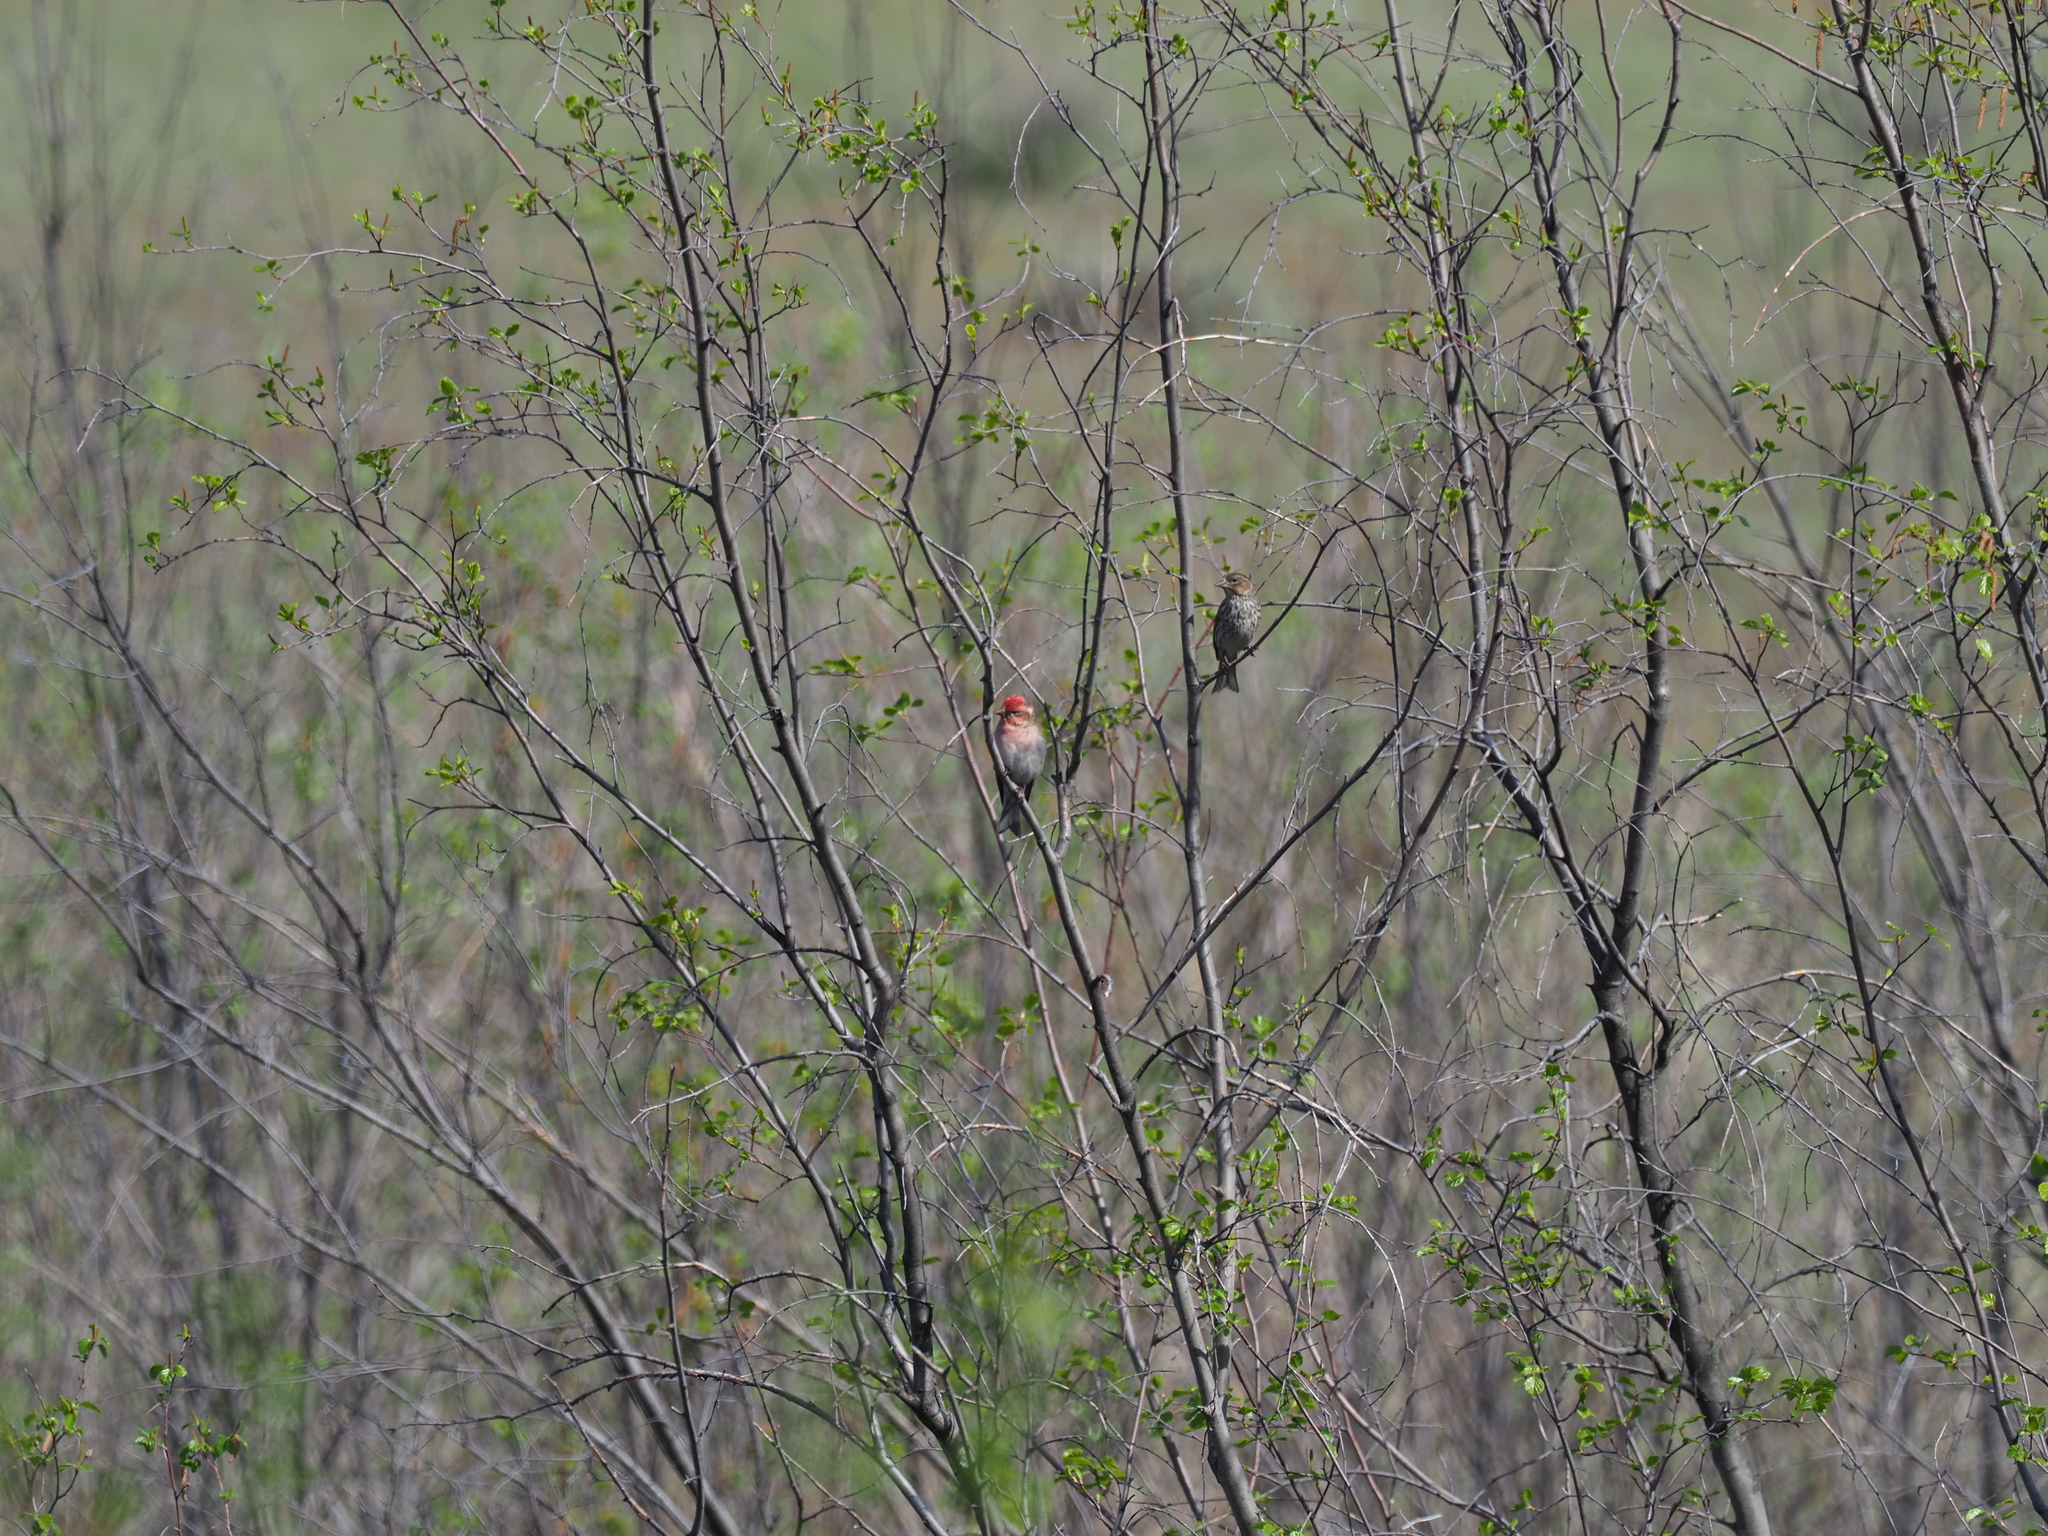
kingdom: Animalia
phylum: Chordata
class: Aves
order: Passeriformes
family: Fringillidae
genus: Haemorhous
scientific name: Haemorhous cassinii
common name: Cassin's finch
